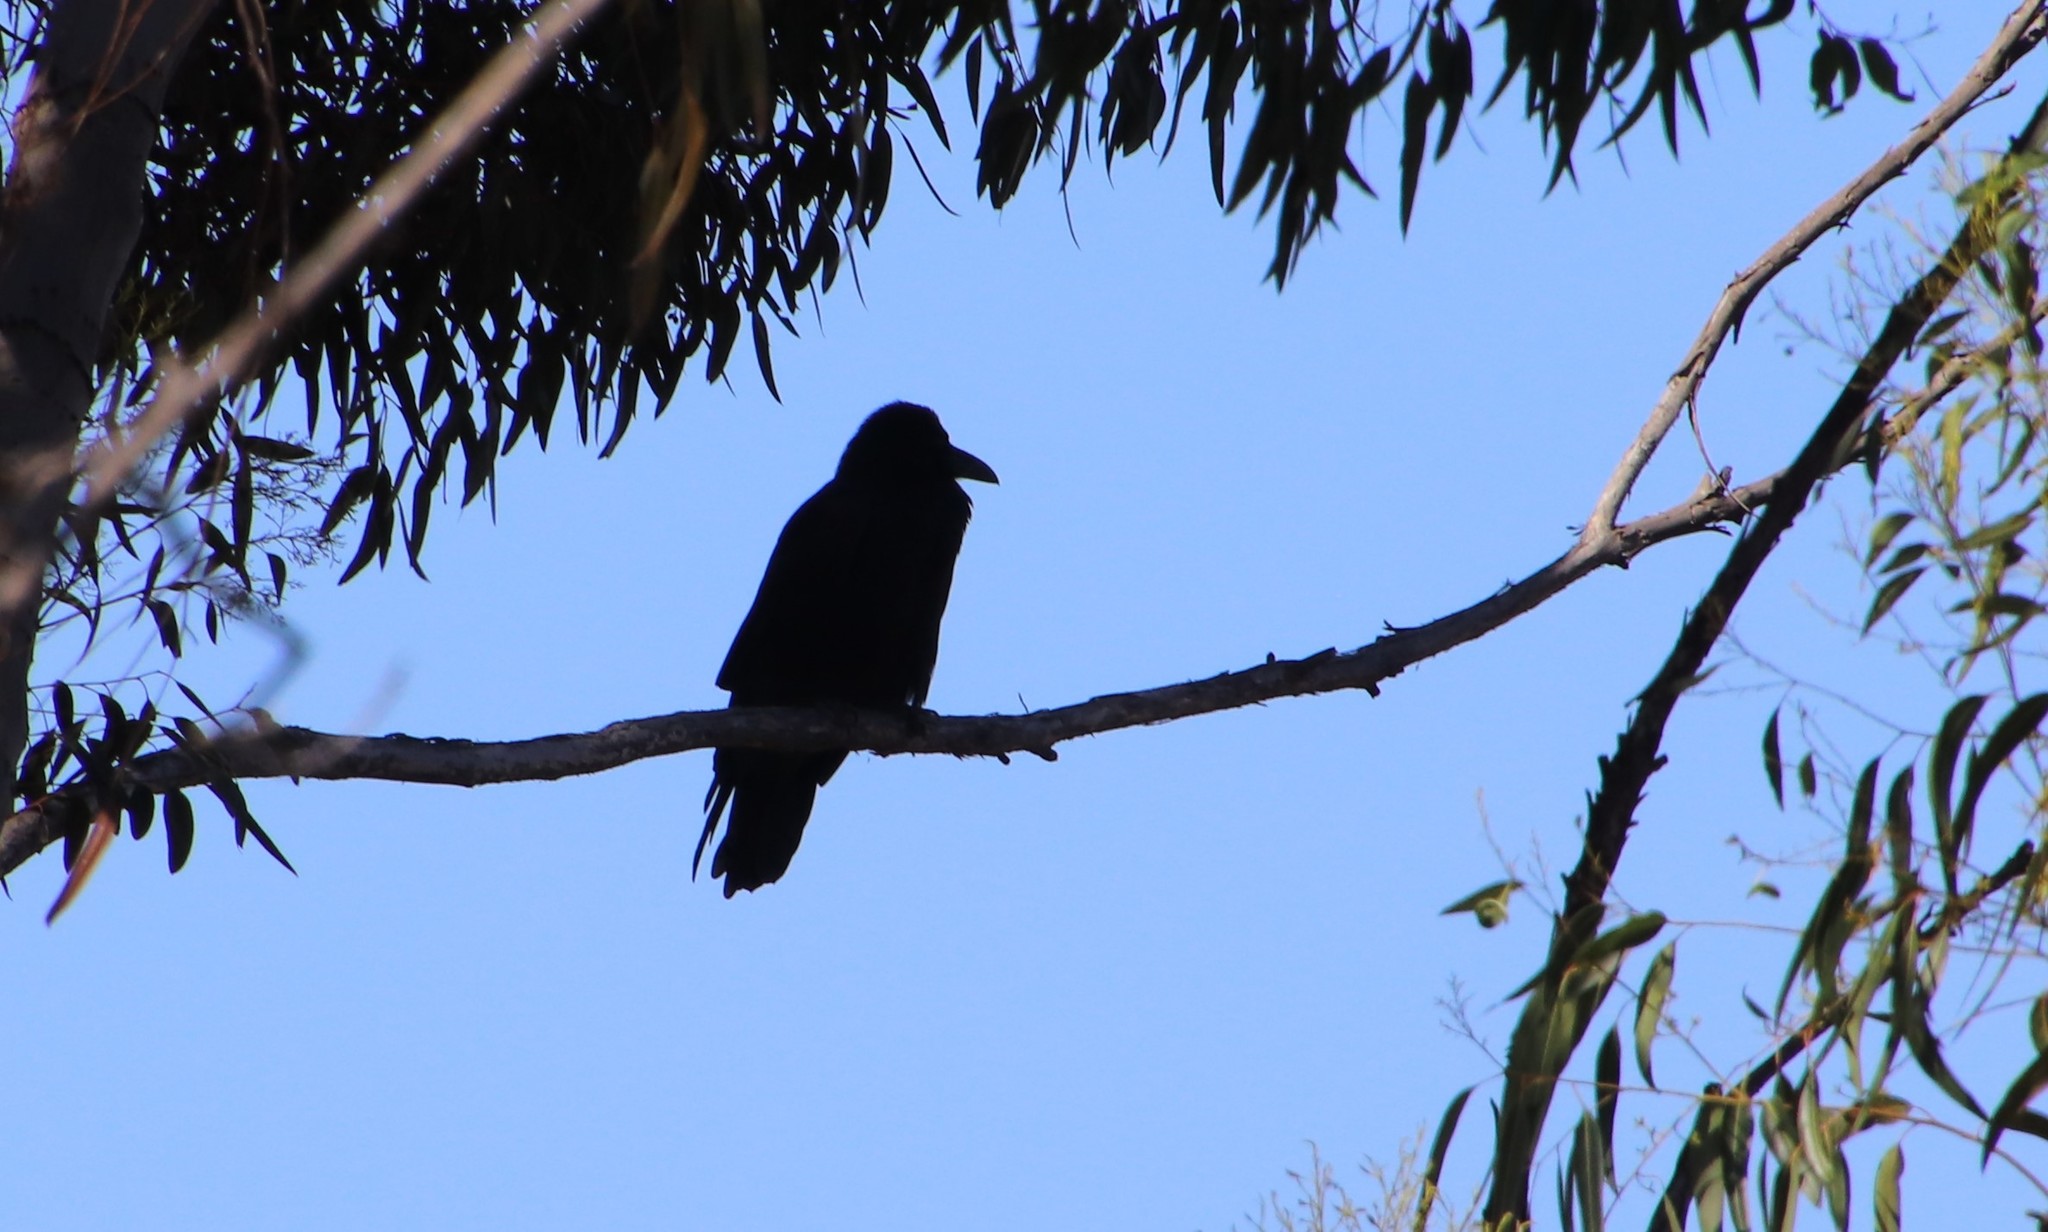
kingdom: Animalia
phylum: Chordata
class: Aves
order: Passeriformes
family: Corvidae
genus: Corvus
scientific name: Corvus corax
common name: Common raven
